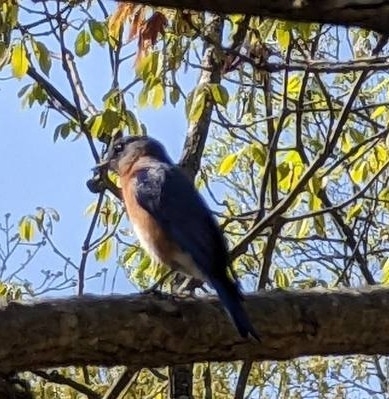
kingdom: Animalia
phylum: Chordata
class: Aves
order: Passeriformes
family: Turdidae
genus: Sialia
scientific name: Sialia sialis
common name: Eastern bluebird
